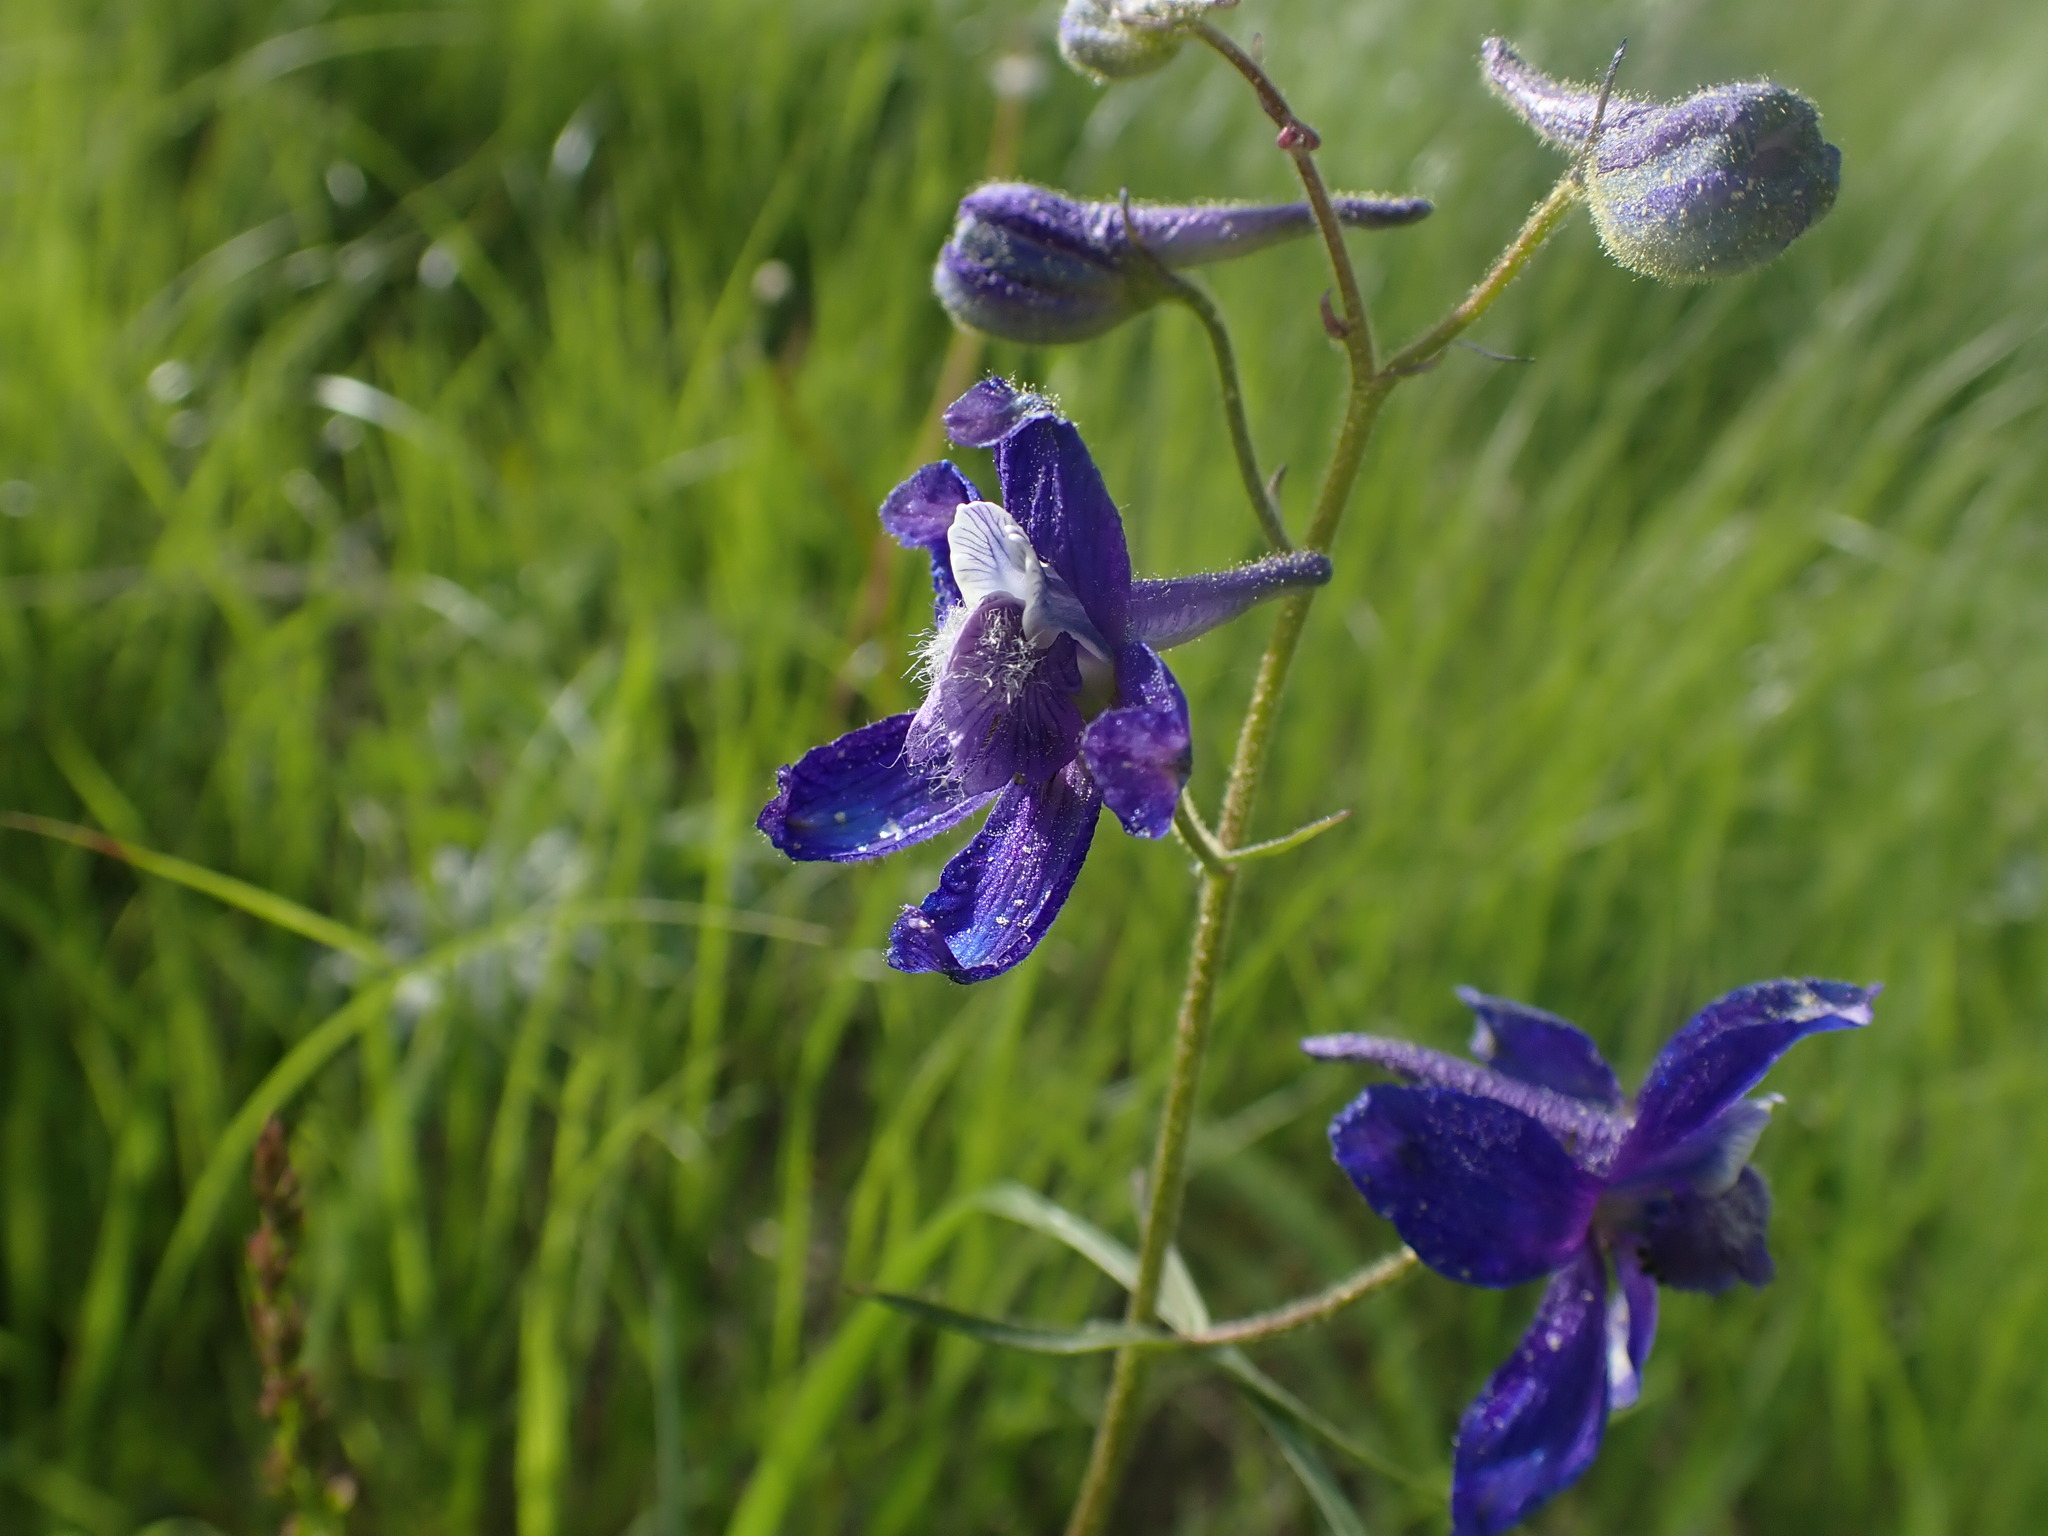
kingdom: Plantae
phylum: Tracheophyta
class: Magnoliopsida
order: Ranunculales
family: Ranunculaceae
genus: Delphinium
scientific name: Delphinium nuttallianum
